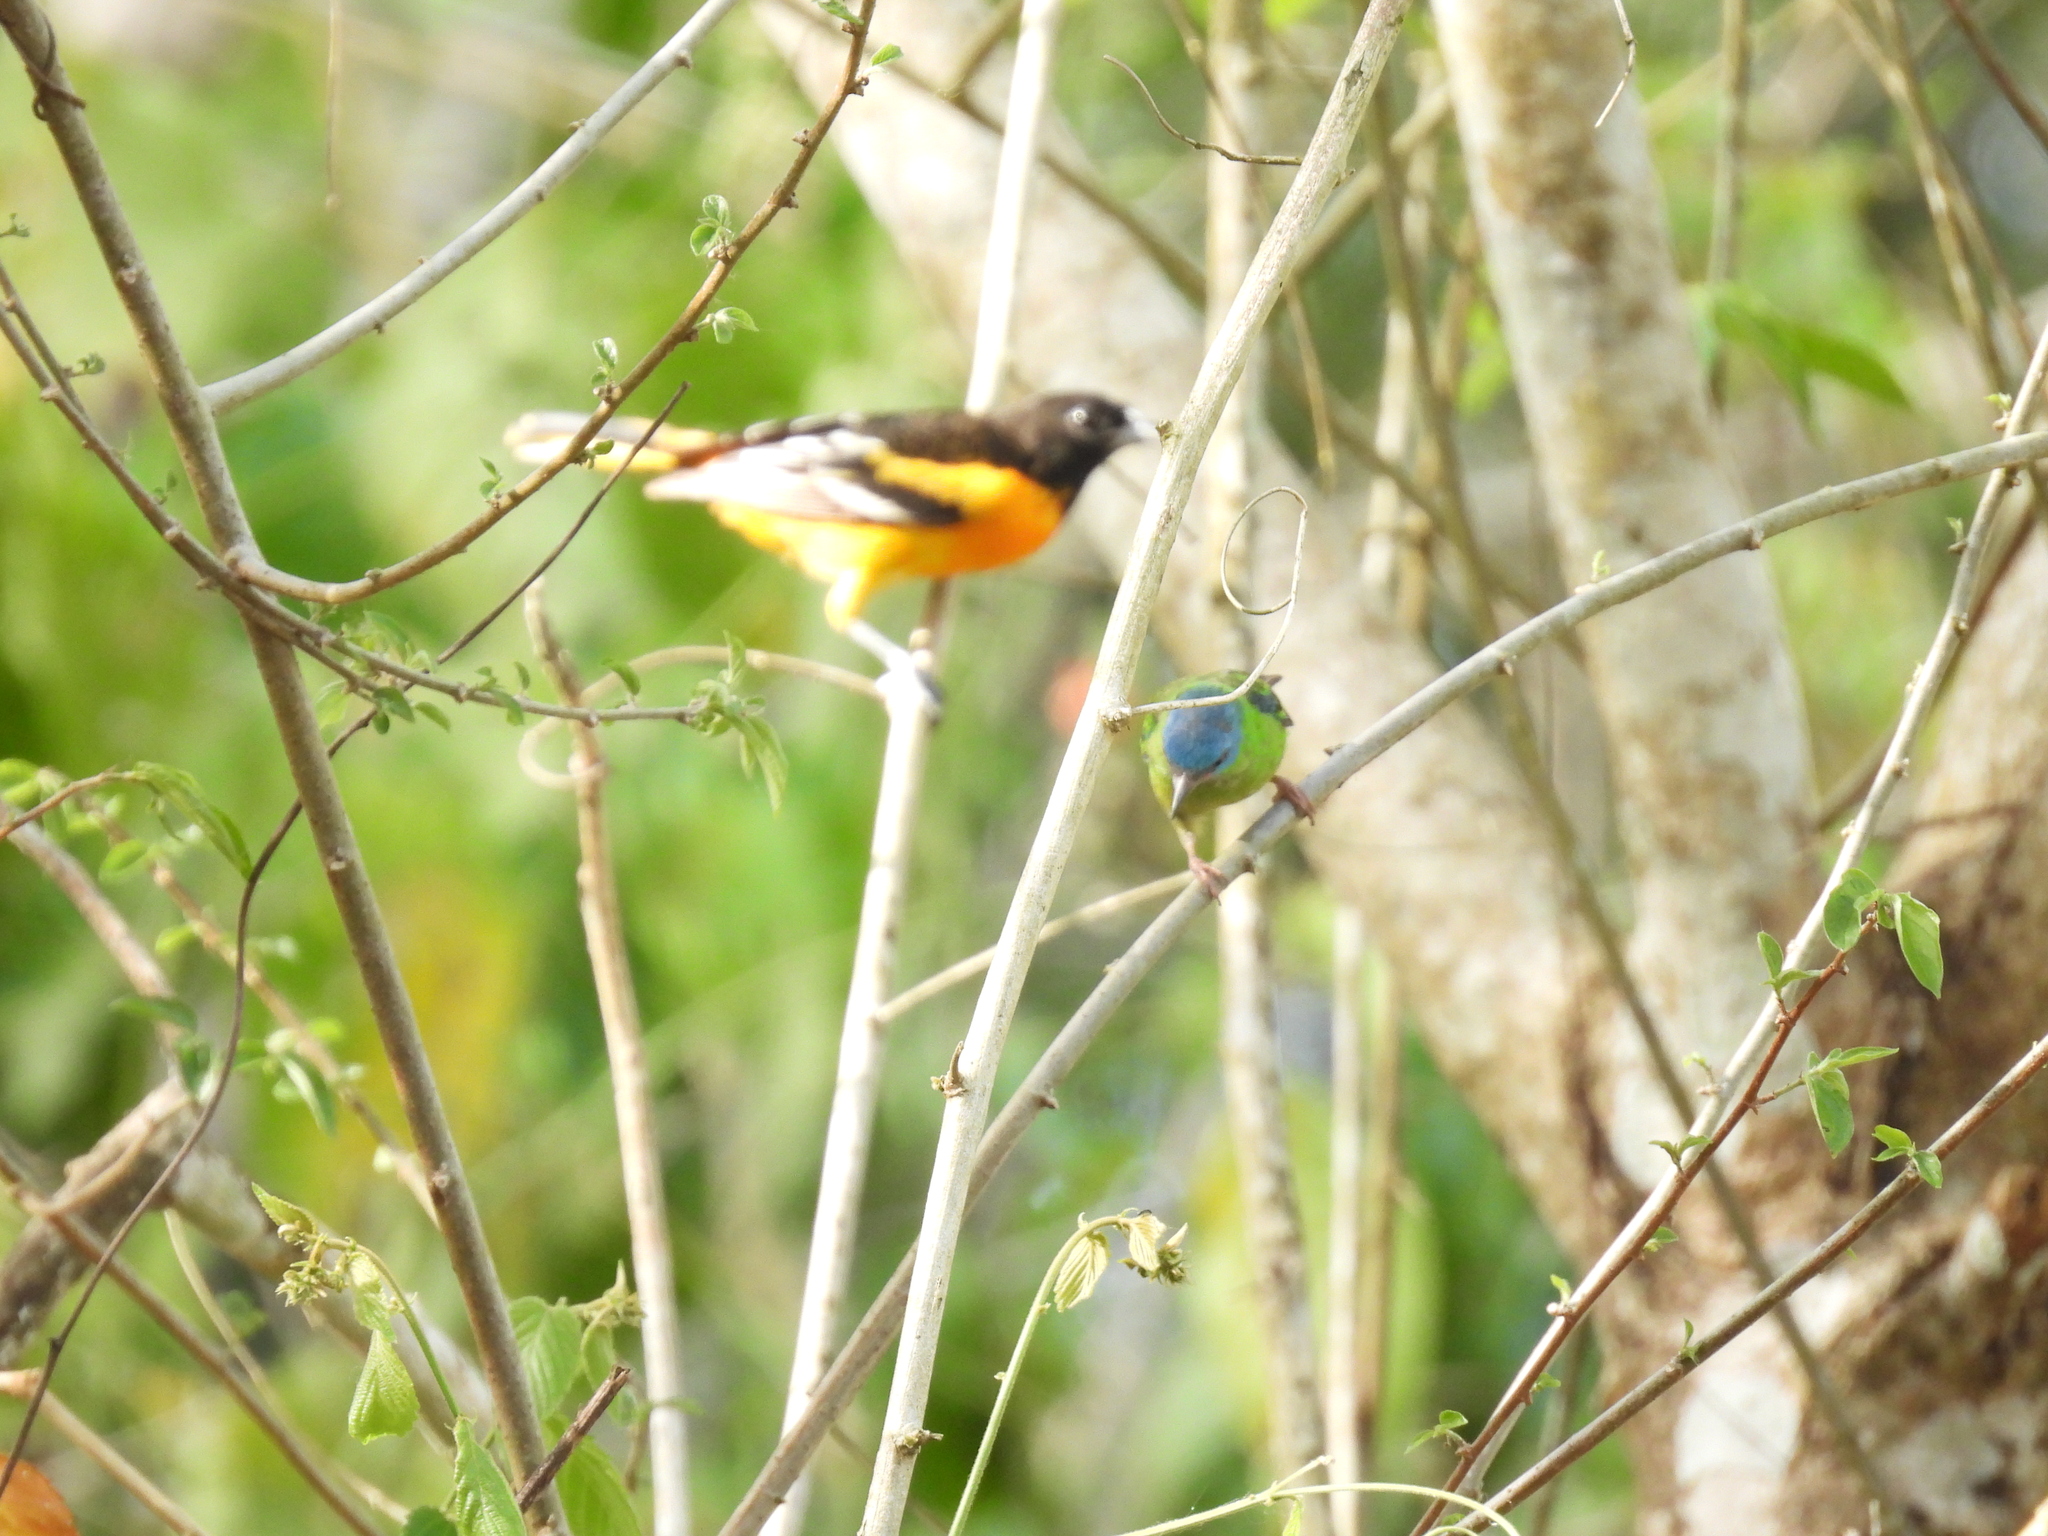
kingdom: Animalia
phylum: Chordata
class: Aves
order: Passeriformes
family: Icteridae
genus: Icterus
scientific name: Icterus galbula
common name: Baltimore oriole
